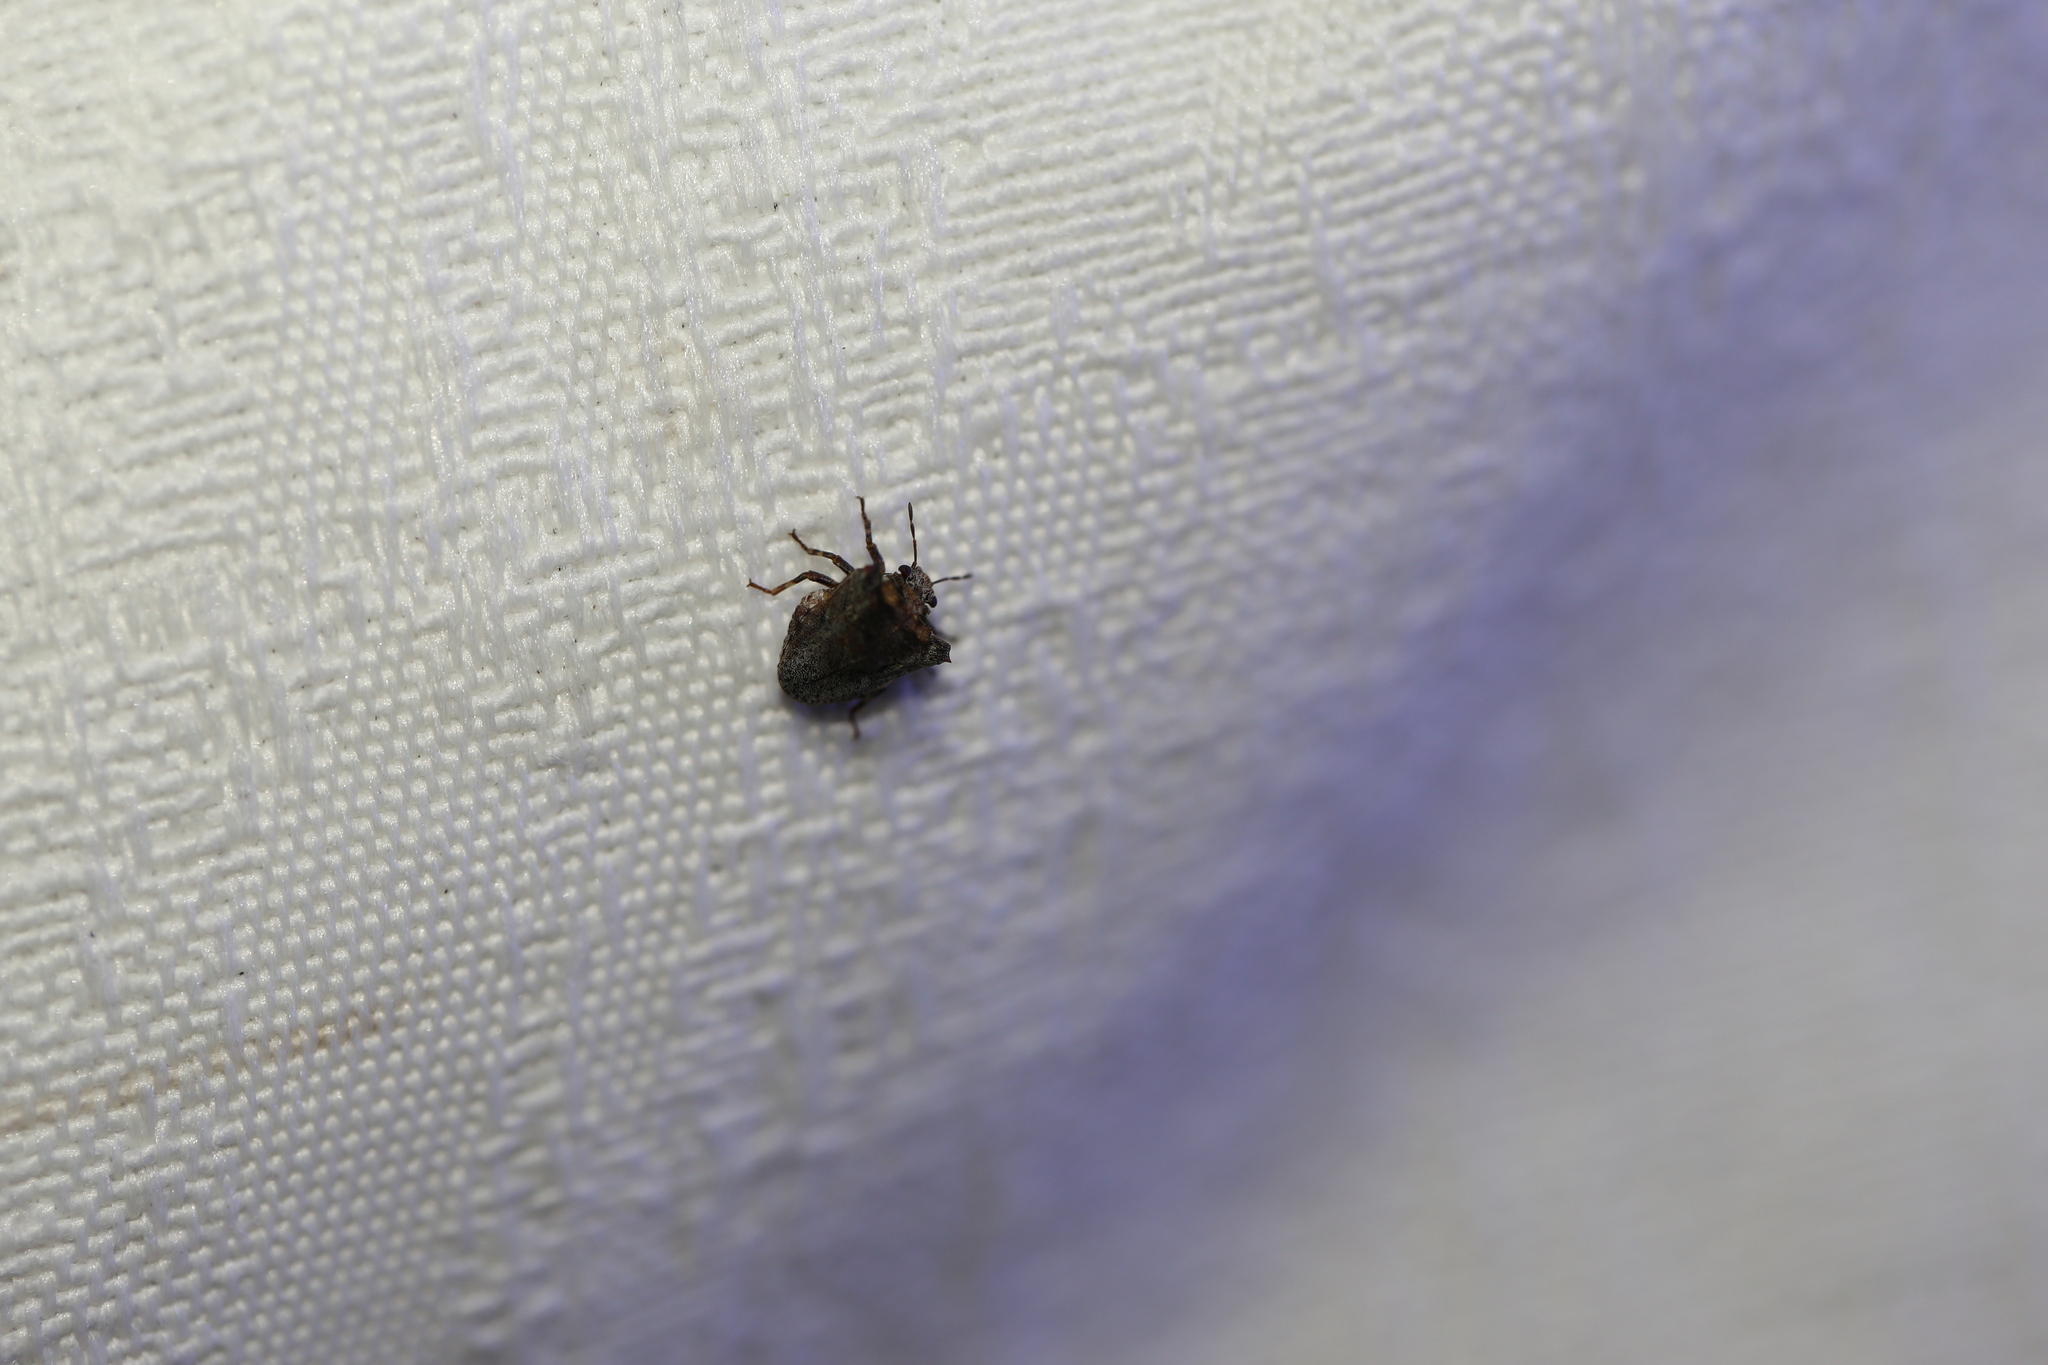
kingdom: Animalia
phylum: Arthropoda
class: Insecta
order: Hemiptera
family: Pentatomidae
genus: Eufroggattia
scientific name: Eufroggattia
